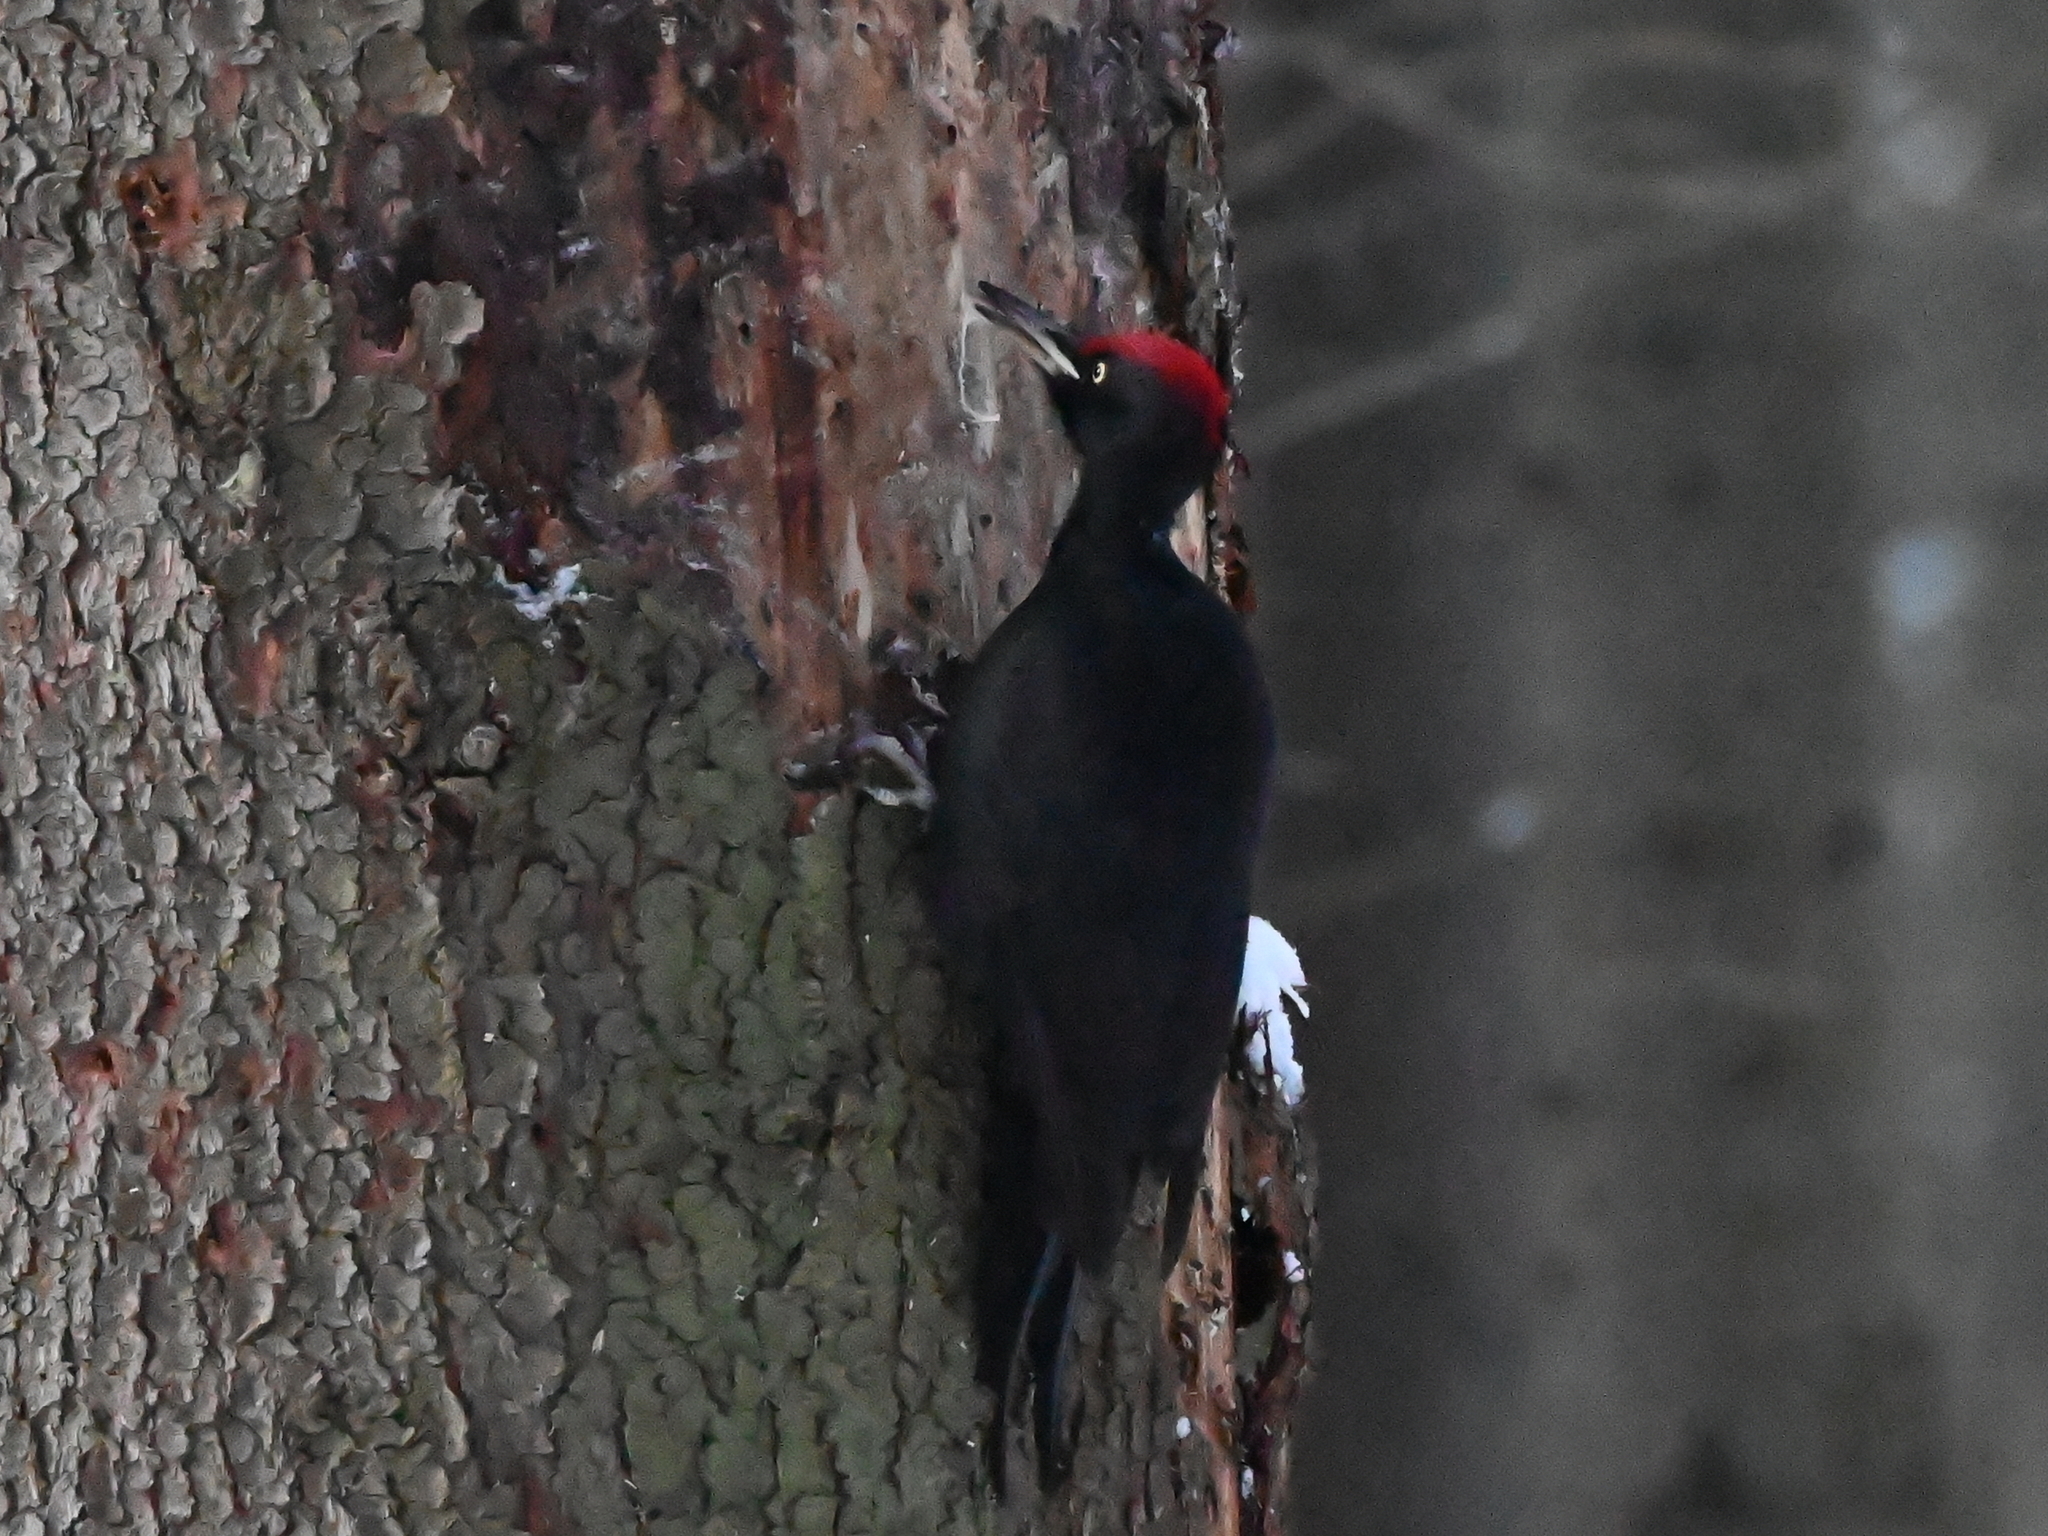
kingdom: Animalia
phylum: Chordata
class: Aves
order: Piciformes
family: Picidae
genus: Dryocopus
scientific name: Dryocopus martius
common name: Black woodpecker
